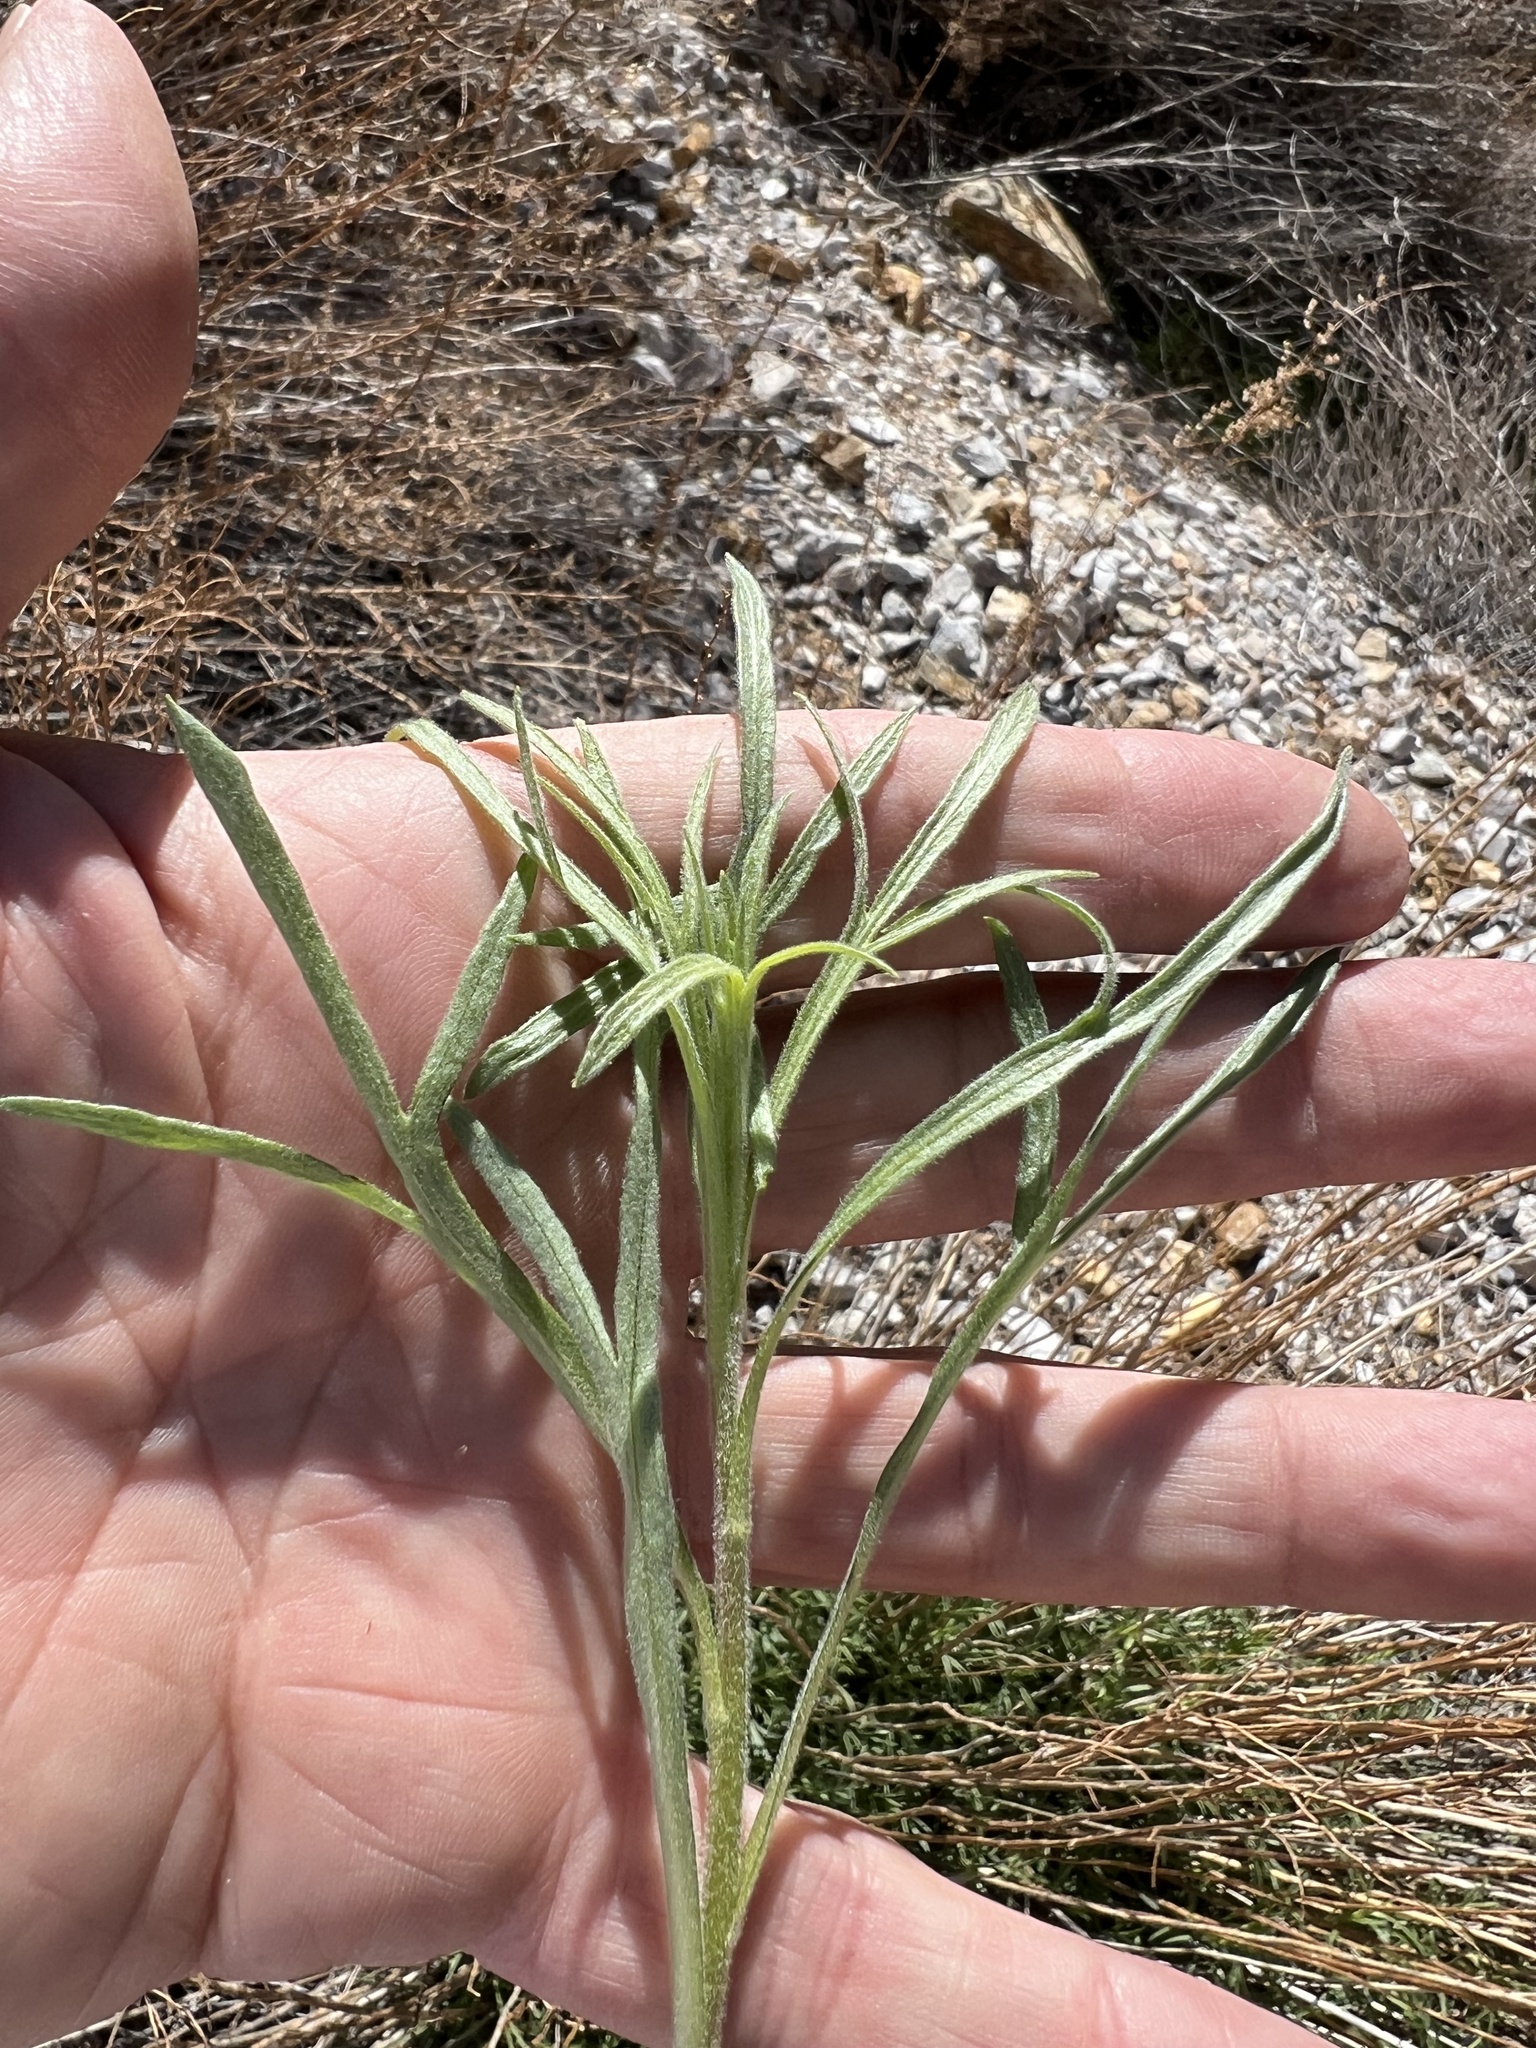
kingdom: Plantae
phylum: Tracheophyta
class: Magnoliopsida
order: Asterales
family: Asteraceae
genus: Artemisia
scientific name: Artemisia dracunculus
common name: Tarragon
